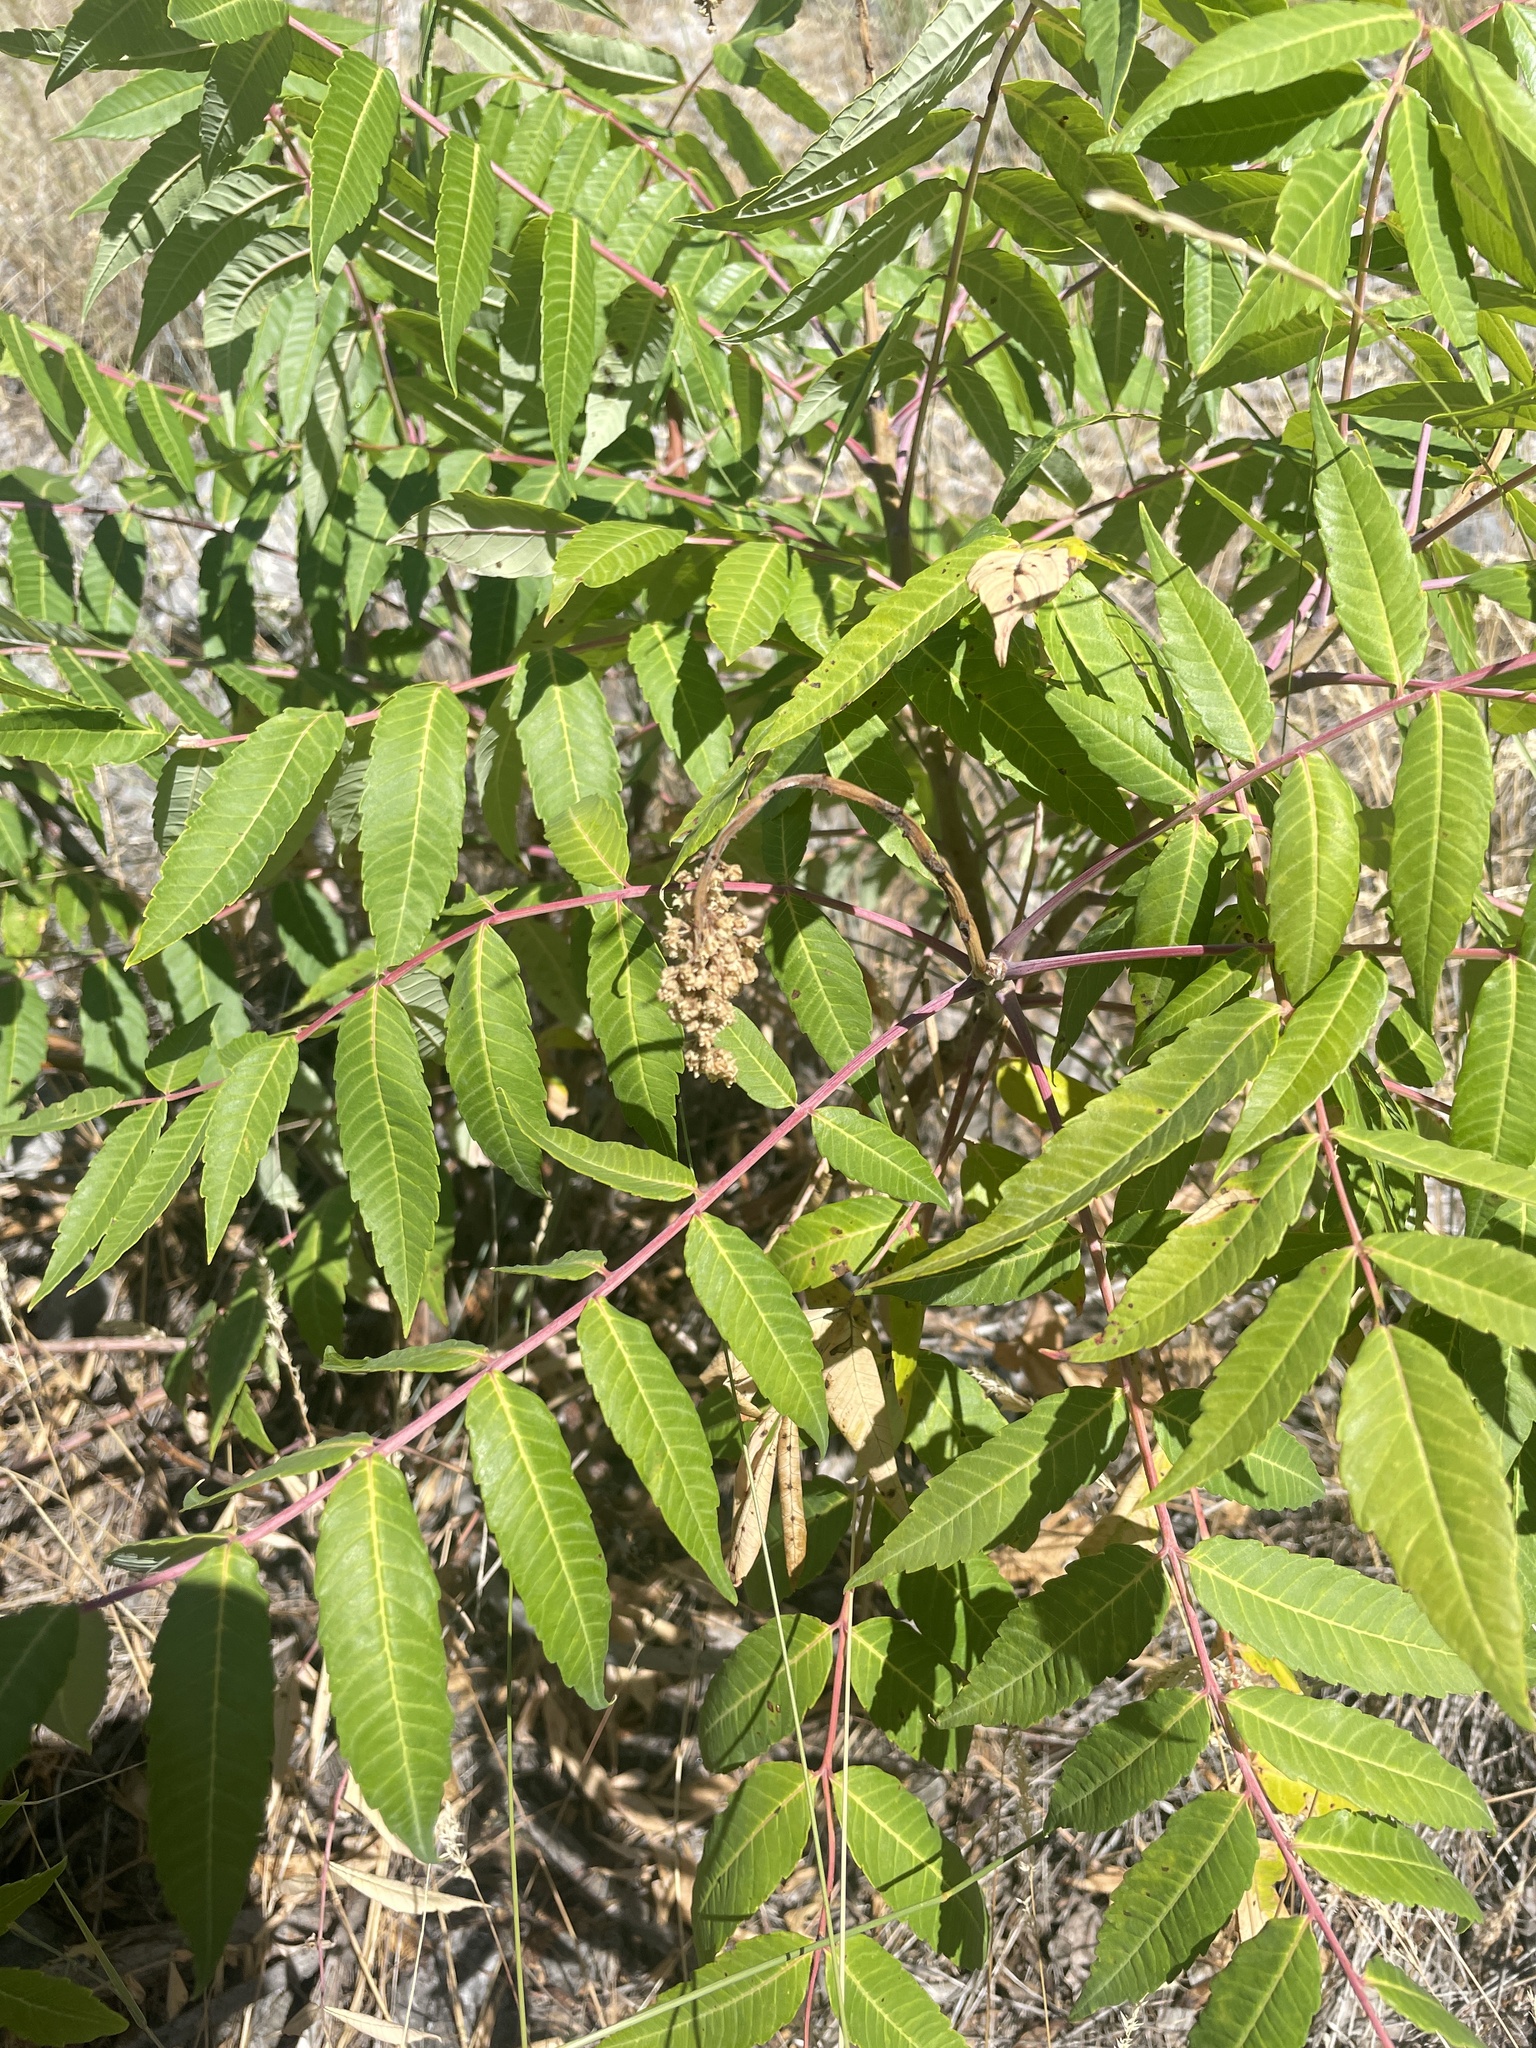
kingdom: Plantae
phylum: Tracheophyta
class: Magnoliopsida
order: Sapindales
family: Anacardiaceae
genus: Rhus
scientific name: Rhus glabra
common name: Scarlet sumac
